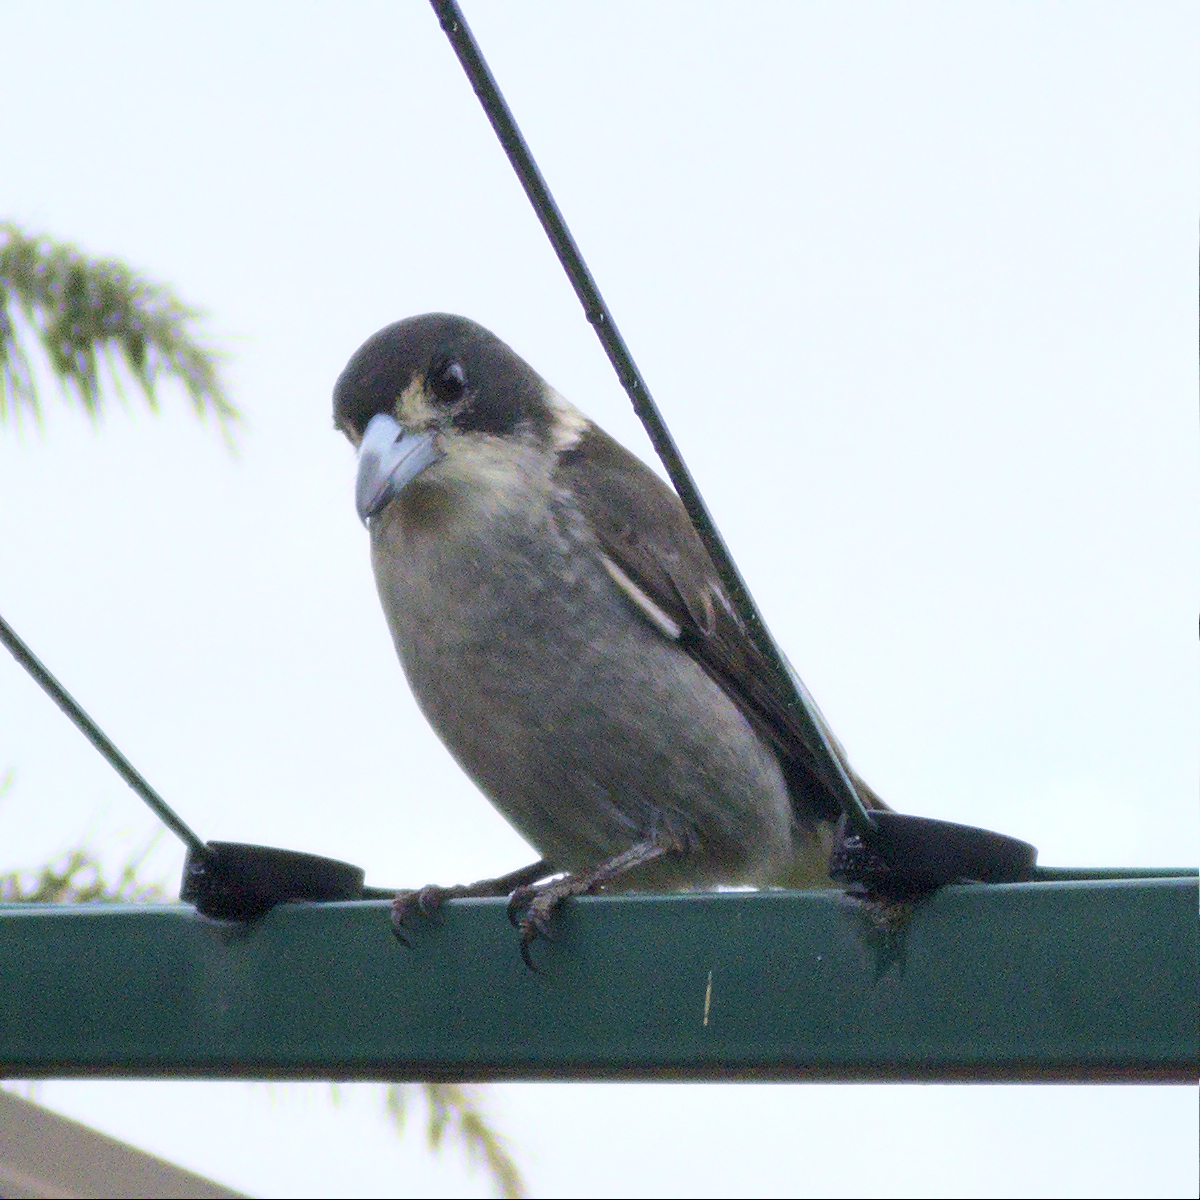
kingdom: Animalia
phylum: Chordata
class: Aves
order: Passeriformes
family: Cracticidae
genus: Cracticus
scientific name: Cracticus torquatus
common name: Grey butcherbird
